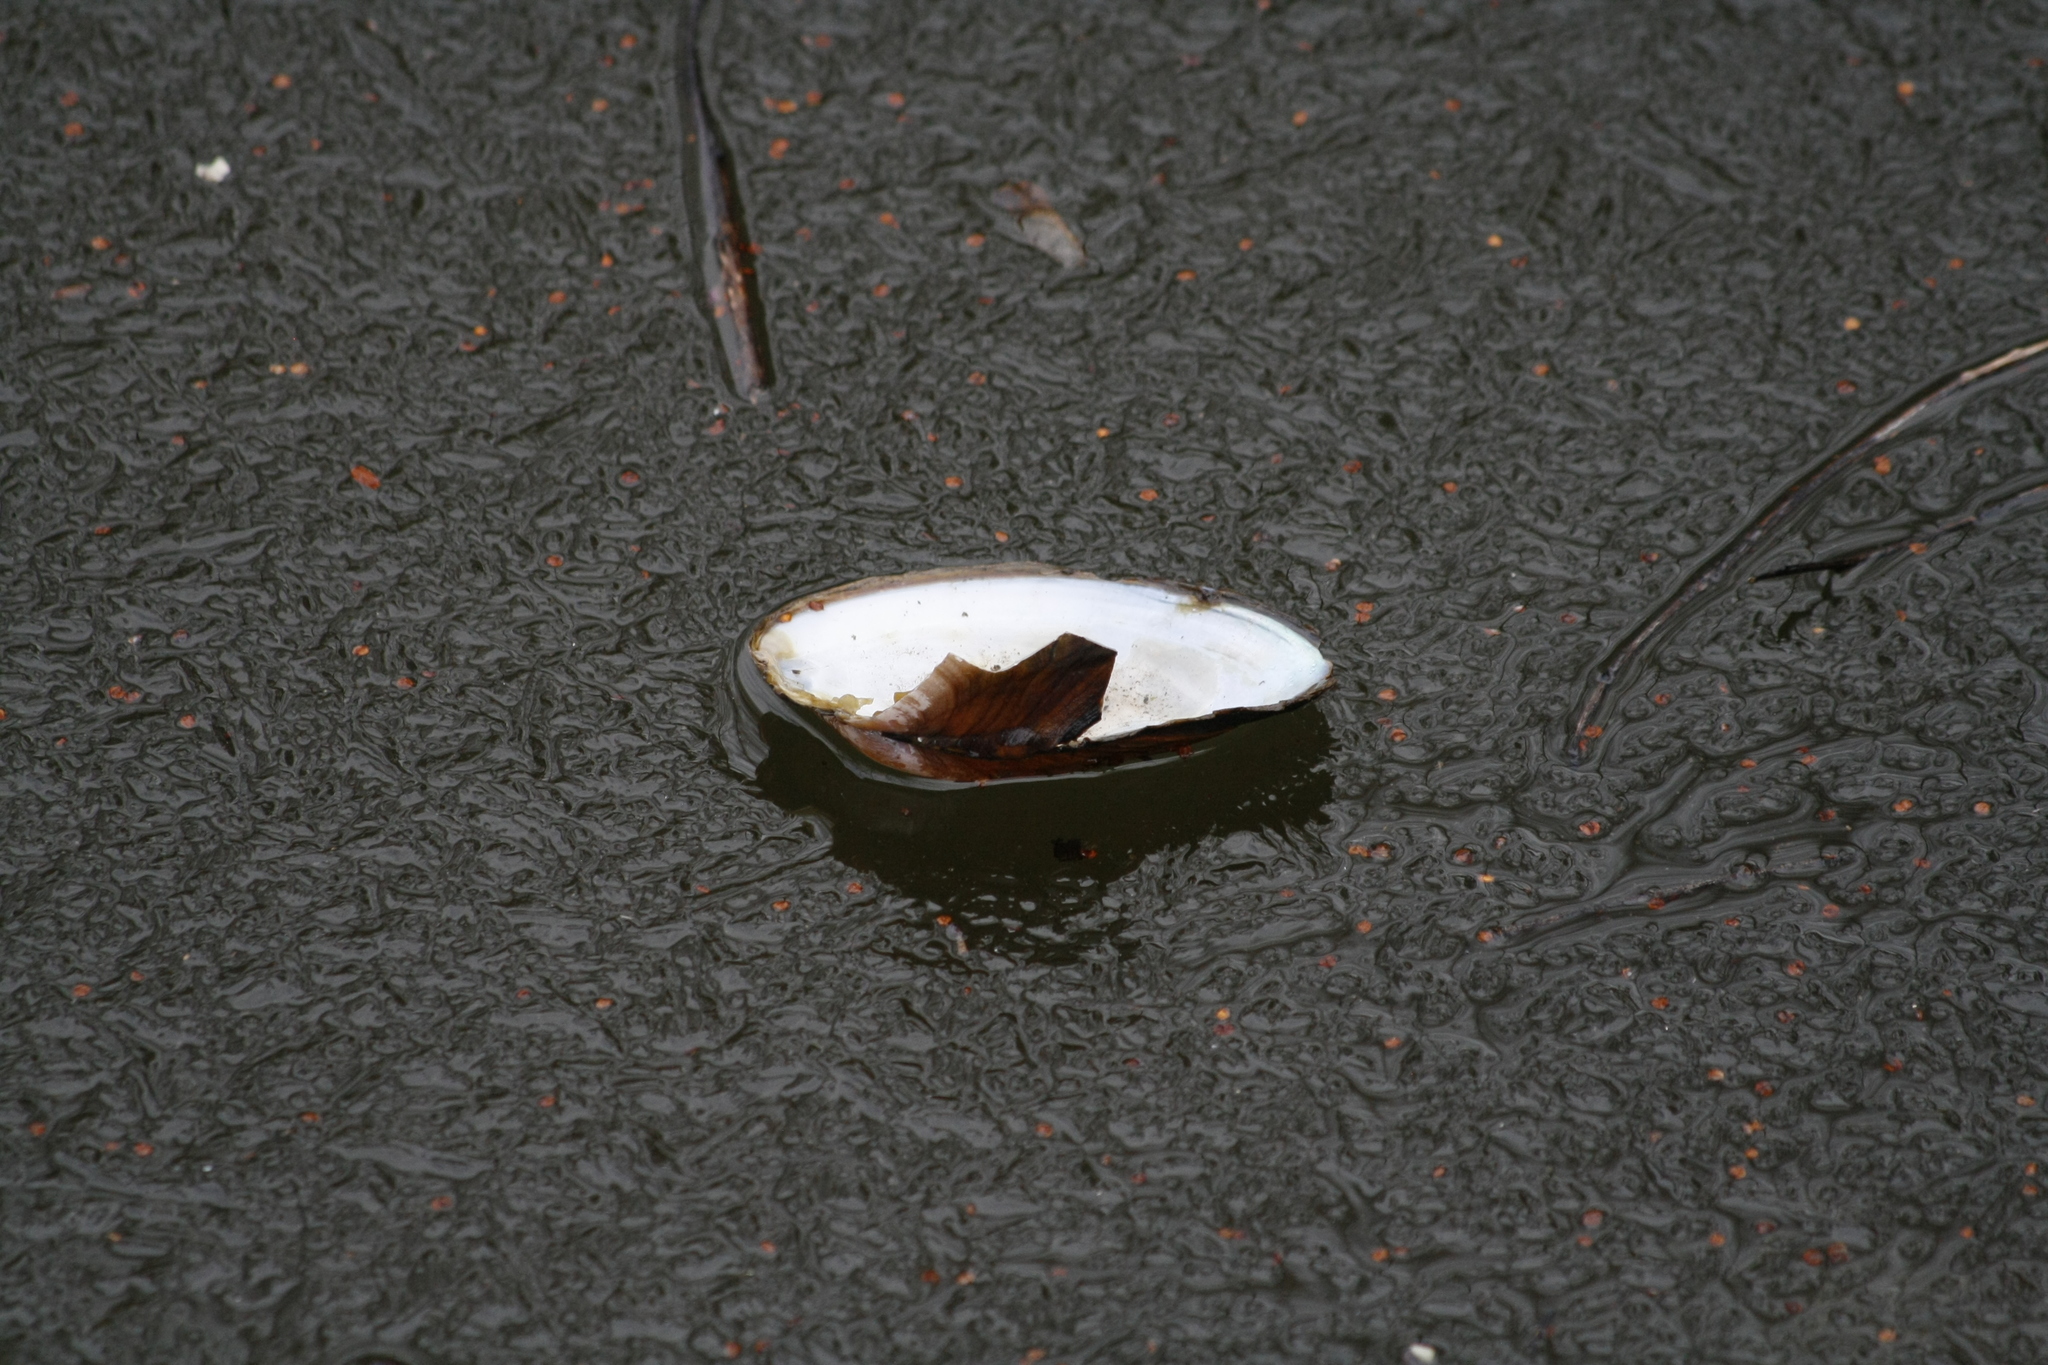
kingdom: Animalia
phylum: Mollusca
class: Bivalvia
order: Unionida
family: Unionidae
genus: Anodonta
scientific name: Anodonta anatina
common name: Duck mussel
